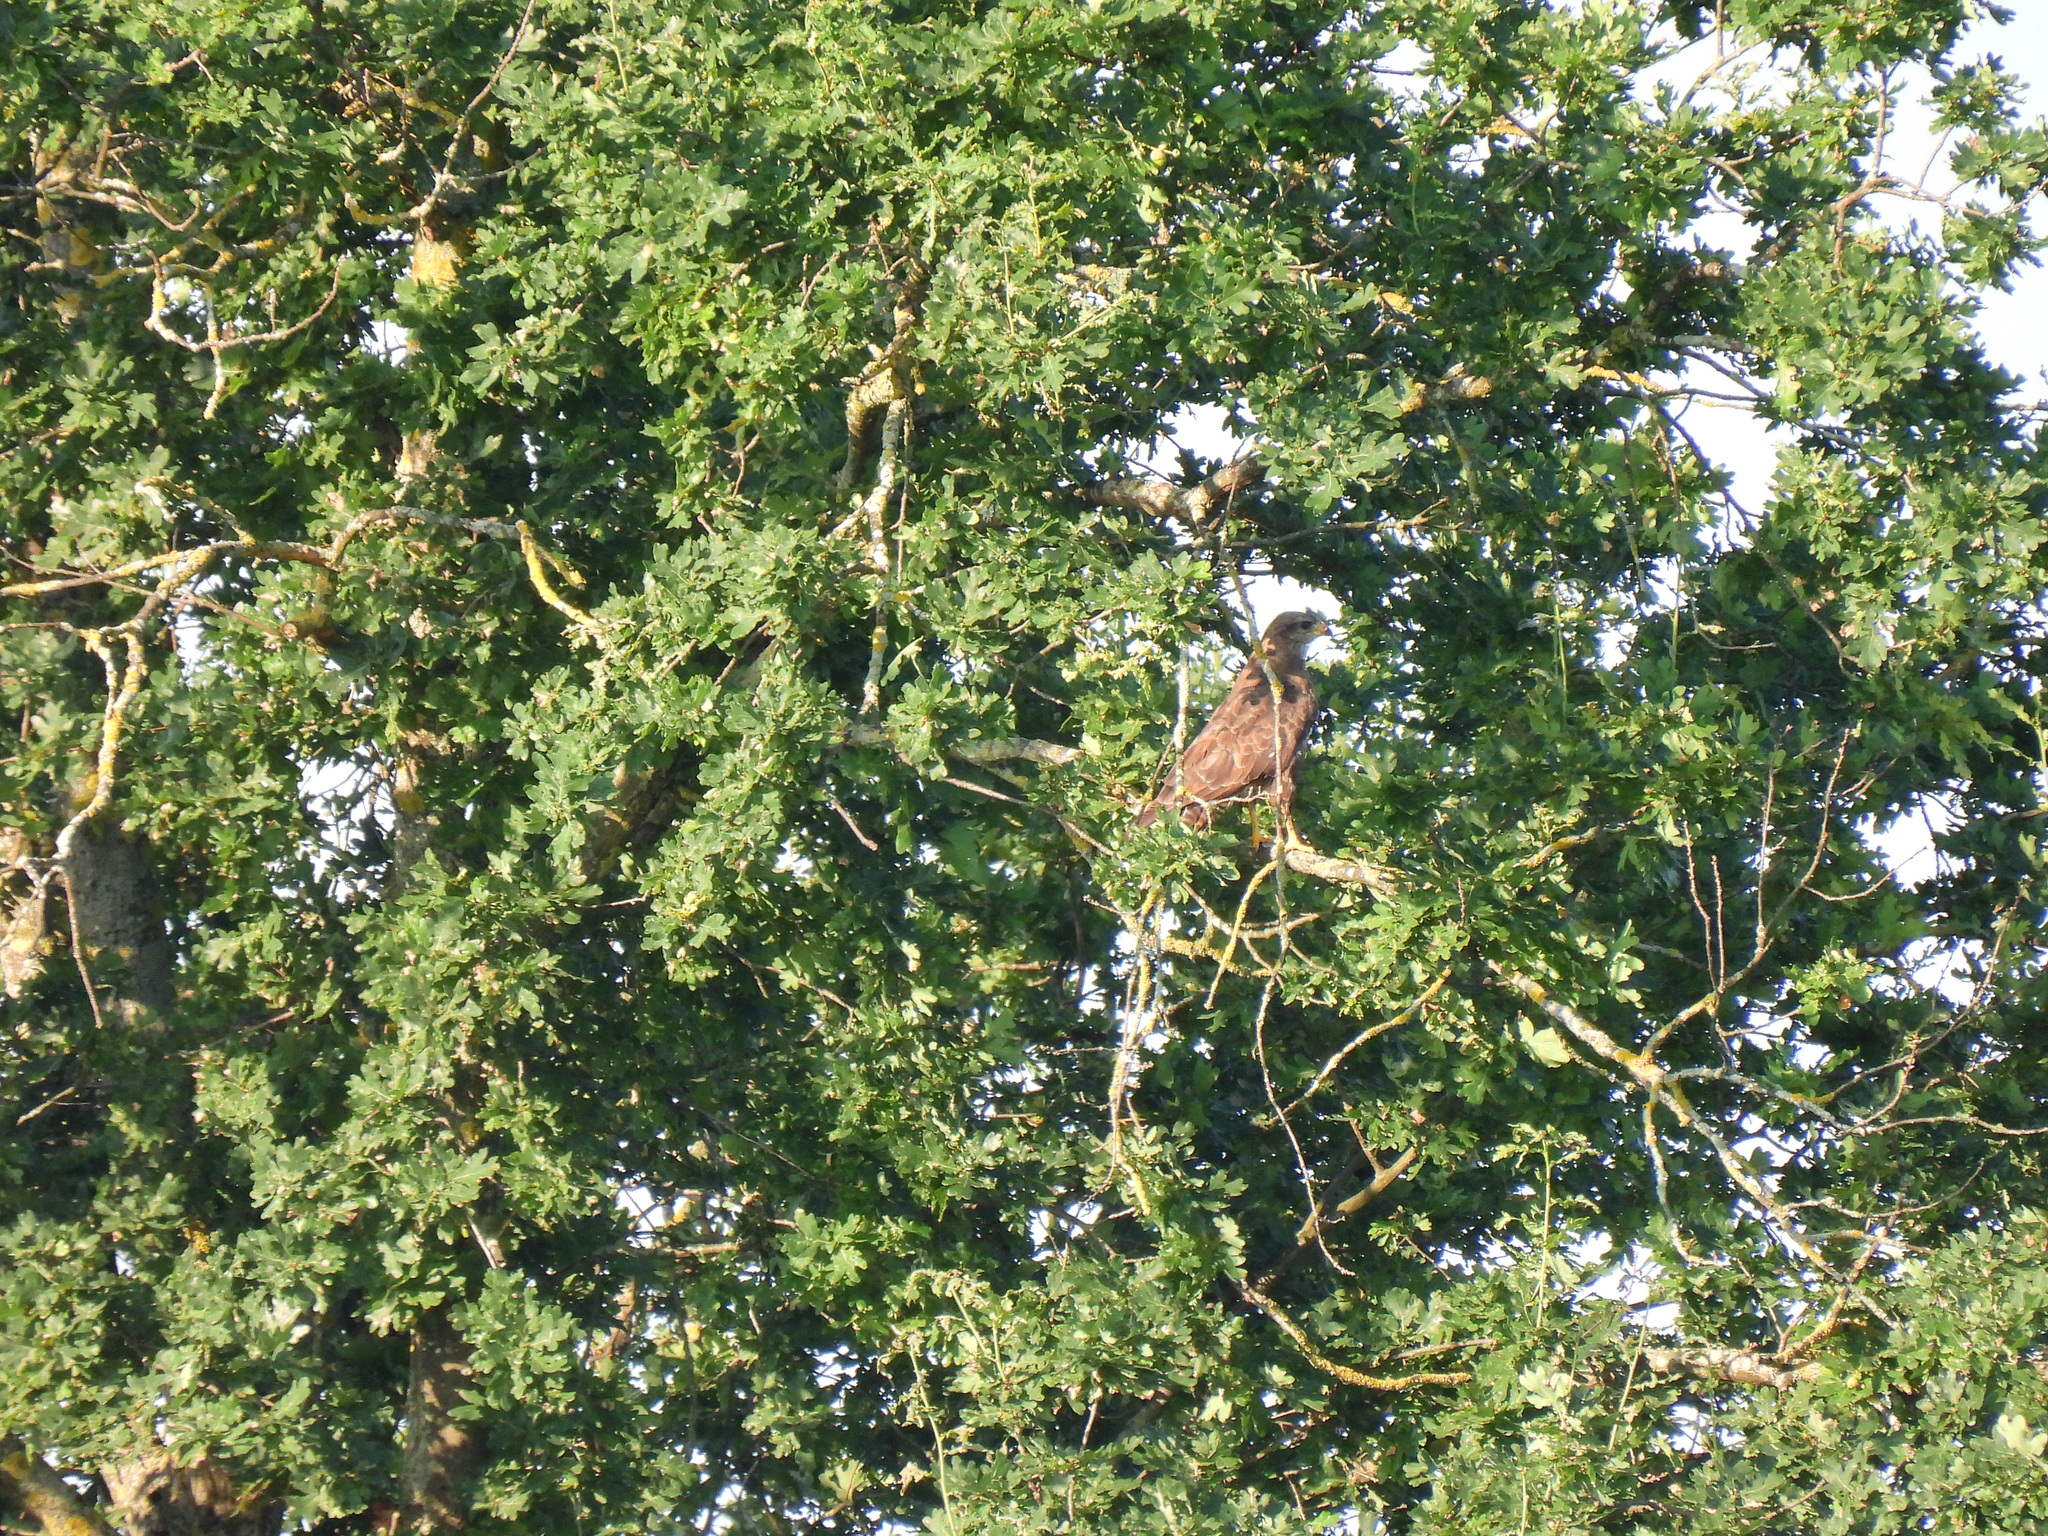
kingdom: Animalia
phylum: Chordata
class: Aves
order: Accipitriformes
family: Accipitridae
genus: Buteo
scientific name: Buteo buteo
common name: Common buzzard
